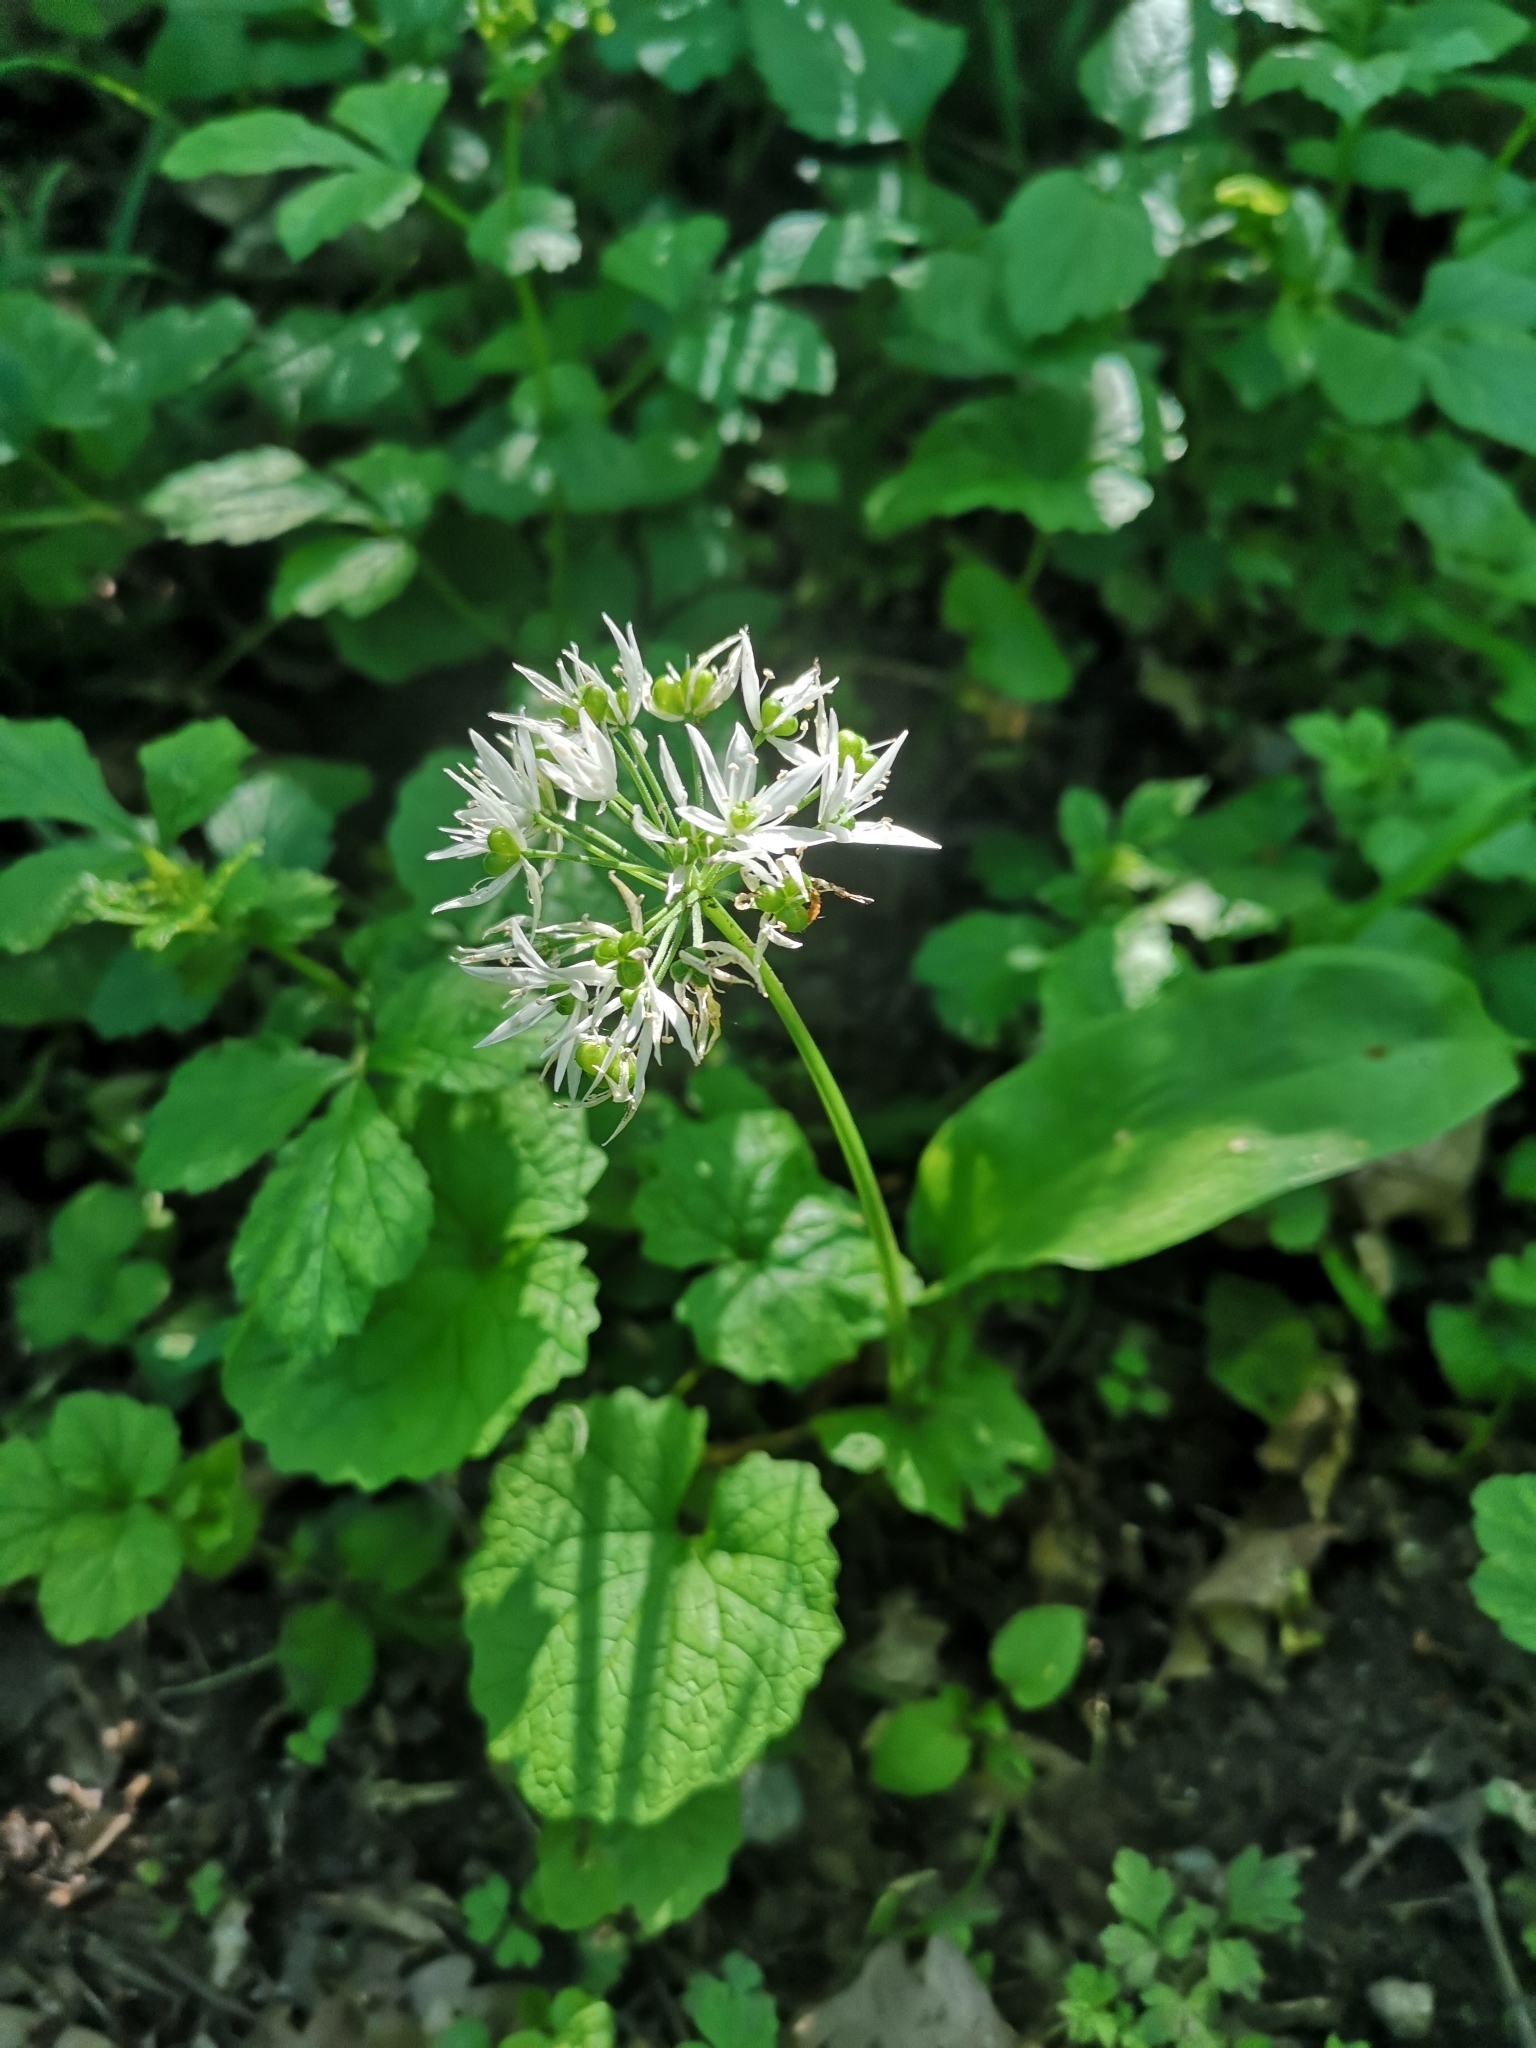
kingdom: Plantae
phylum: Tracheophyta
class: Liliopsida
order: Asparagales
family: Amaryllidaceae
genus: Allium
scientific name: Allium ursinum
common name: Ramsons
